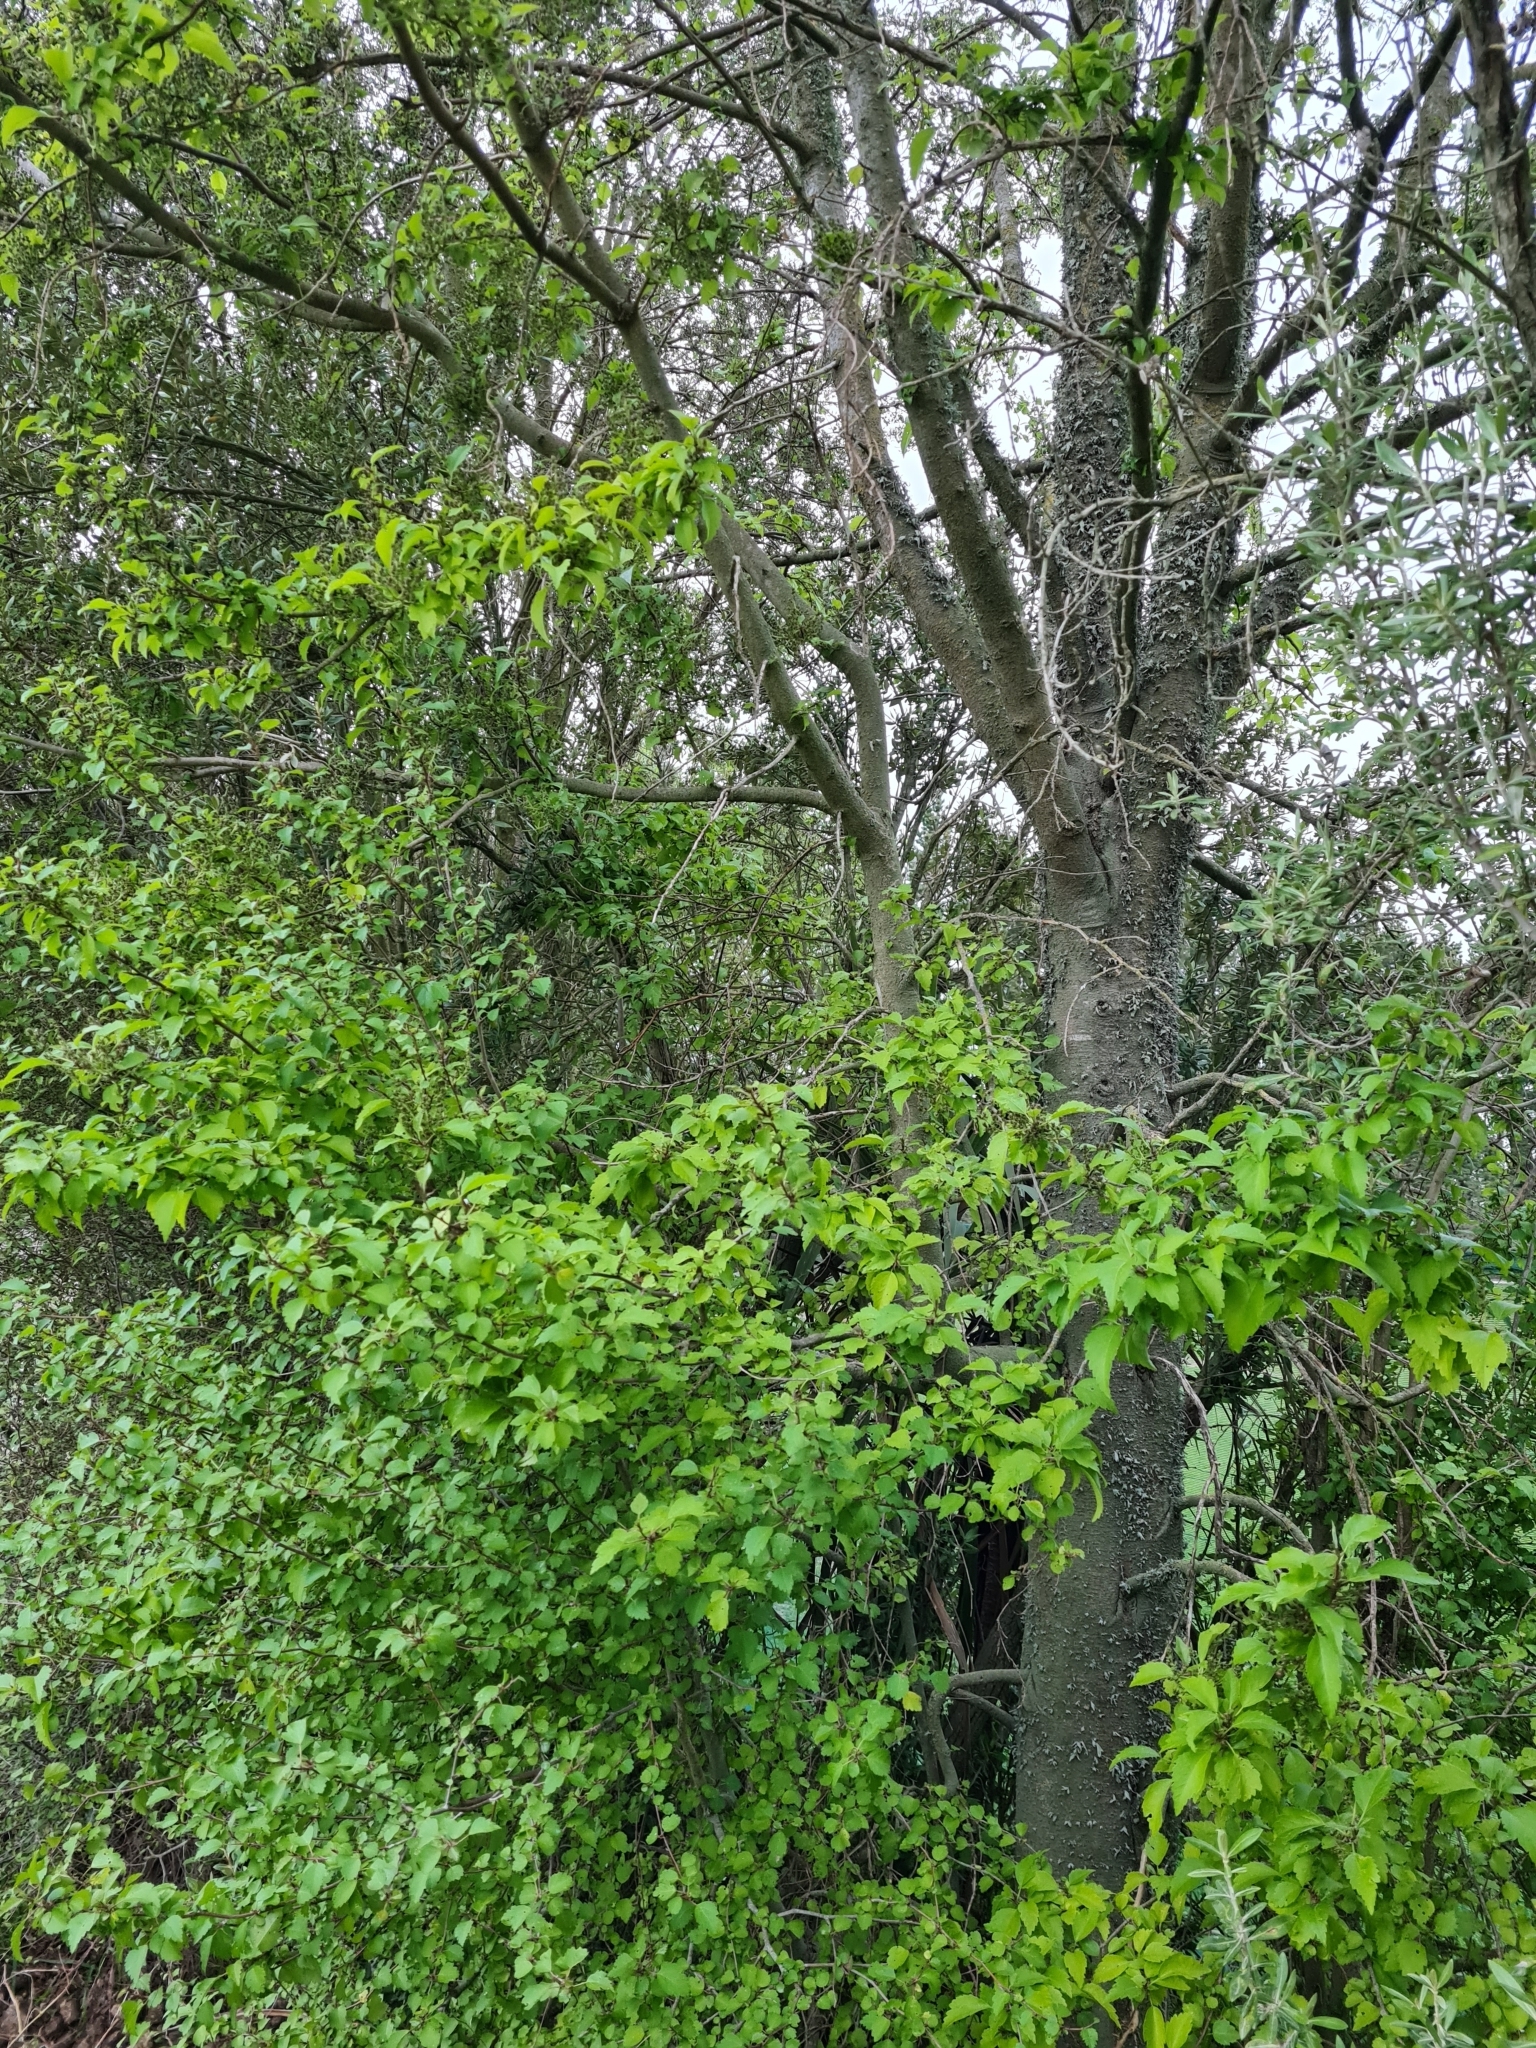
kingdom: Plantae
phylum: Tracheophyta
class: Magnoliopsida
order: Malvales
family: Malvaceae
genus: Plagianthus
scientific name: Plagianthus regius
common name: Manatu
